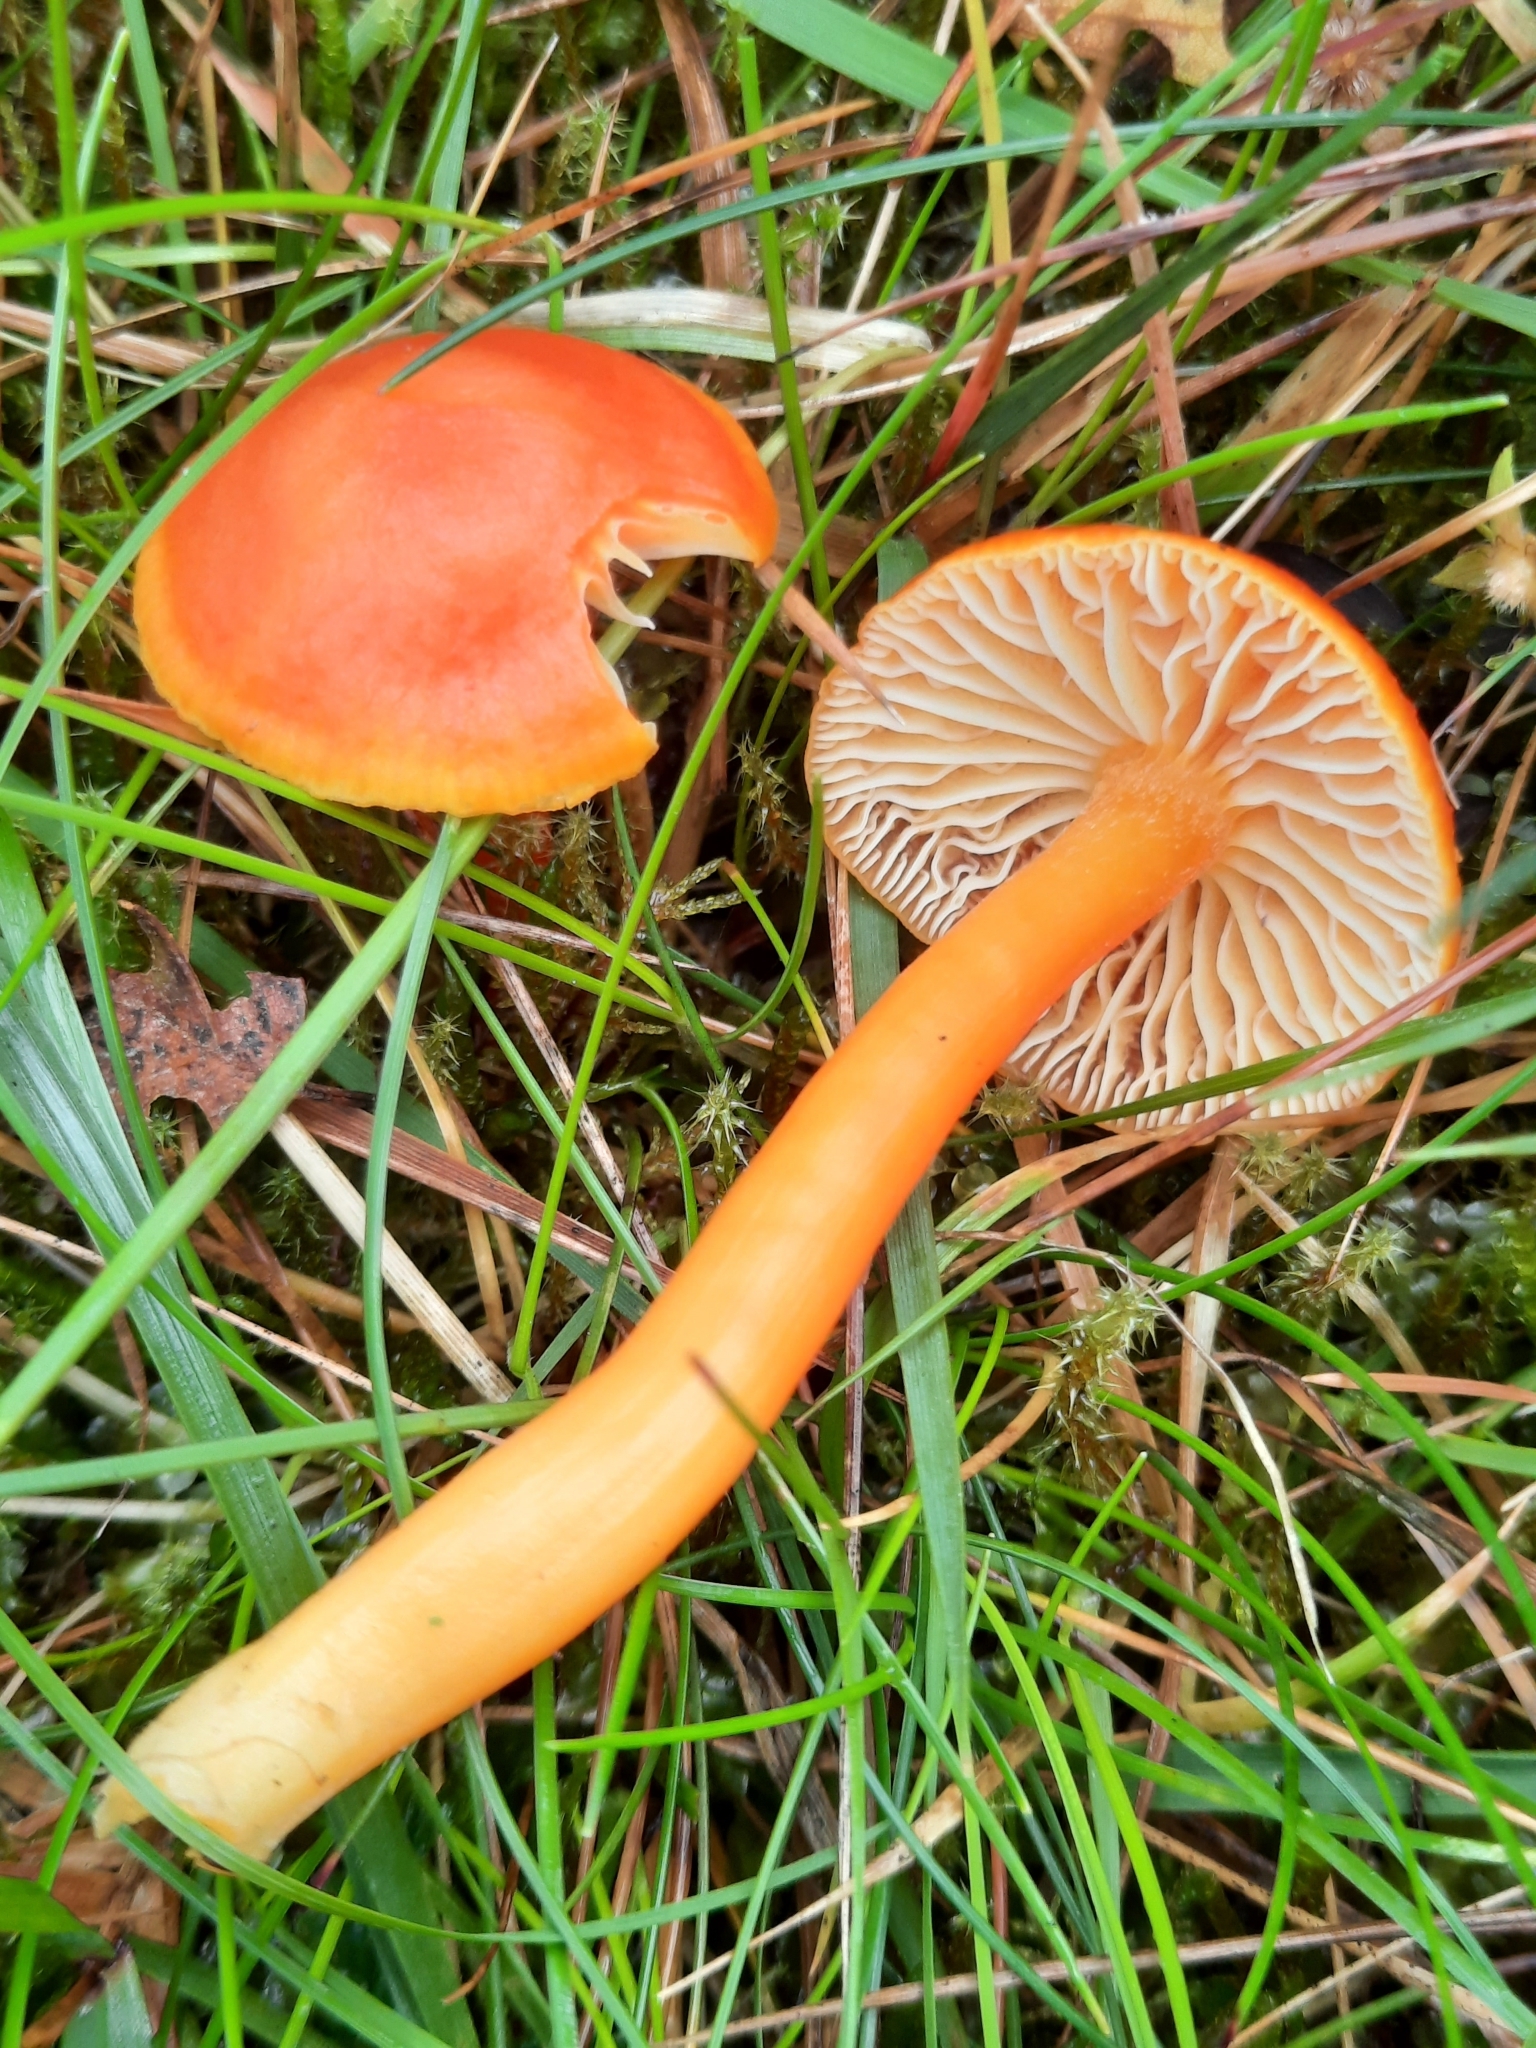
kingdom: Fungi
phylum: Basidiomycota
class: Agaricomycetes
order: Agaricales
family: Hygrophoraceae
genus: Hygrocybe
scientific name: Hygrocybe reidii
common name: Honey waxcap
